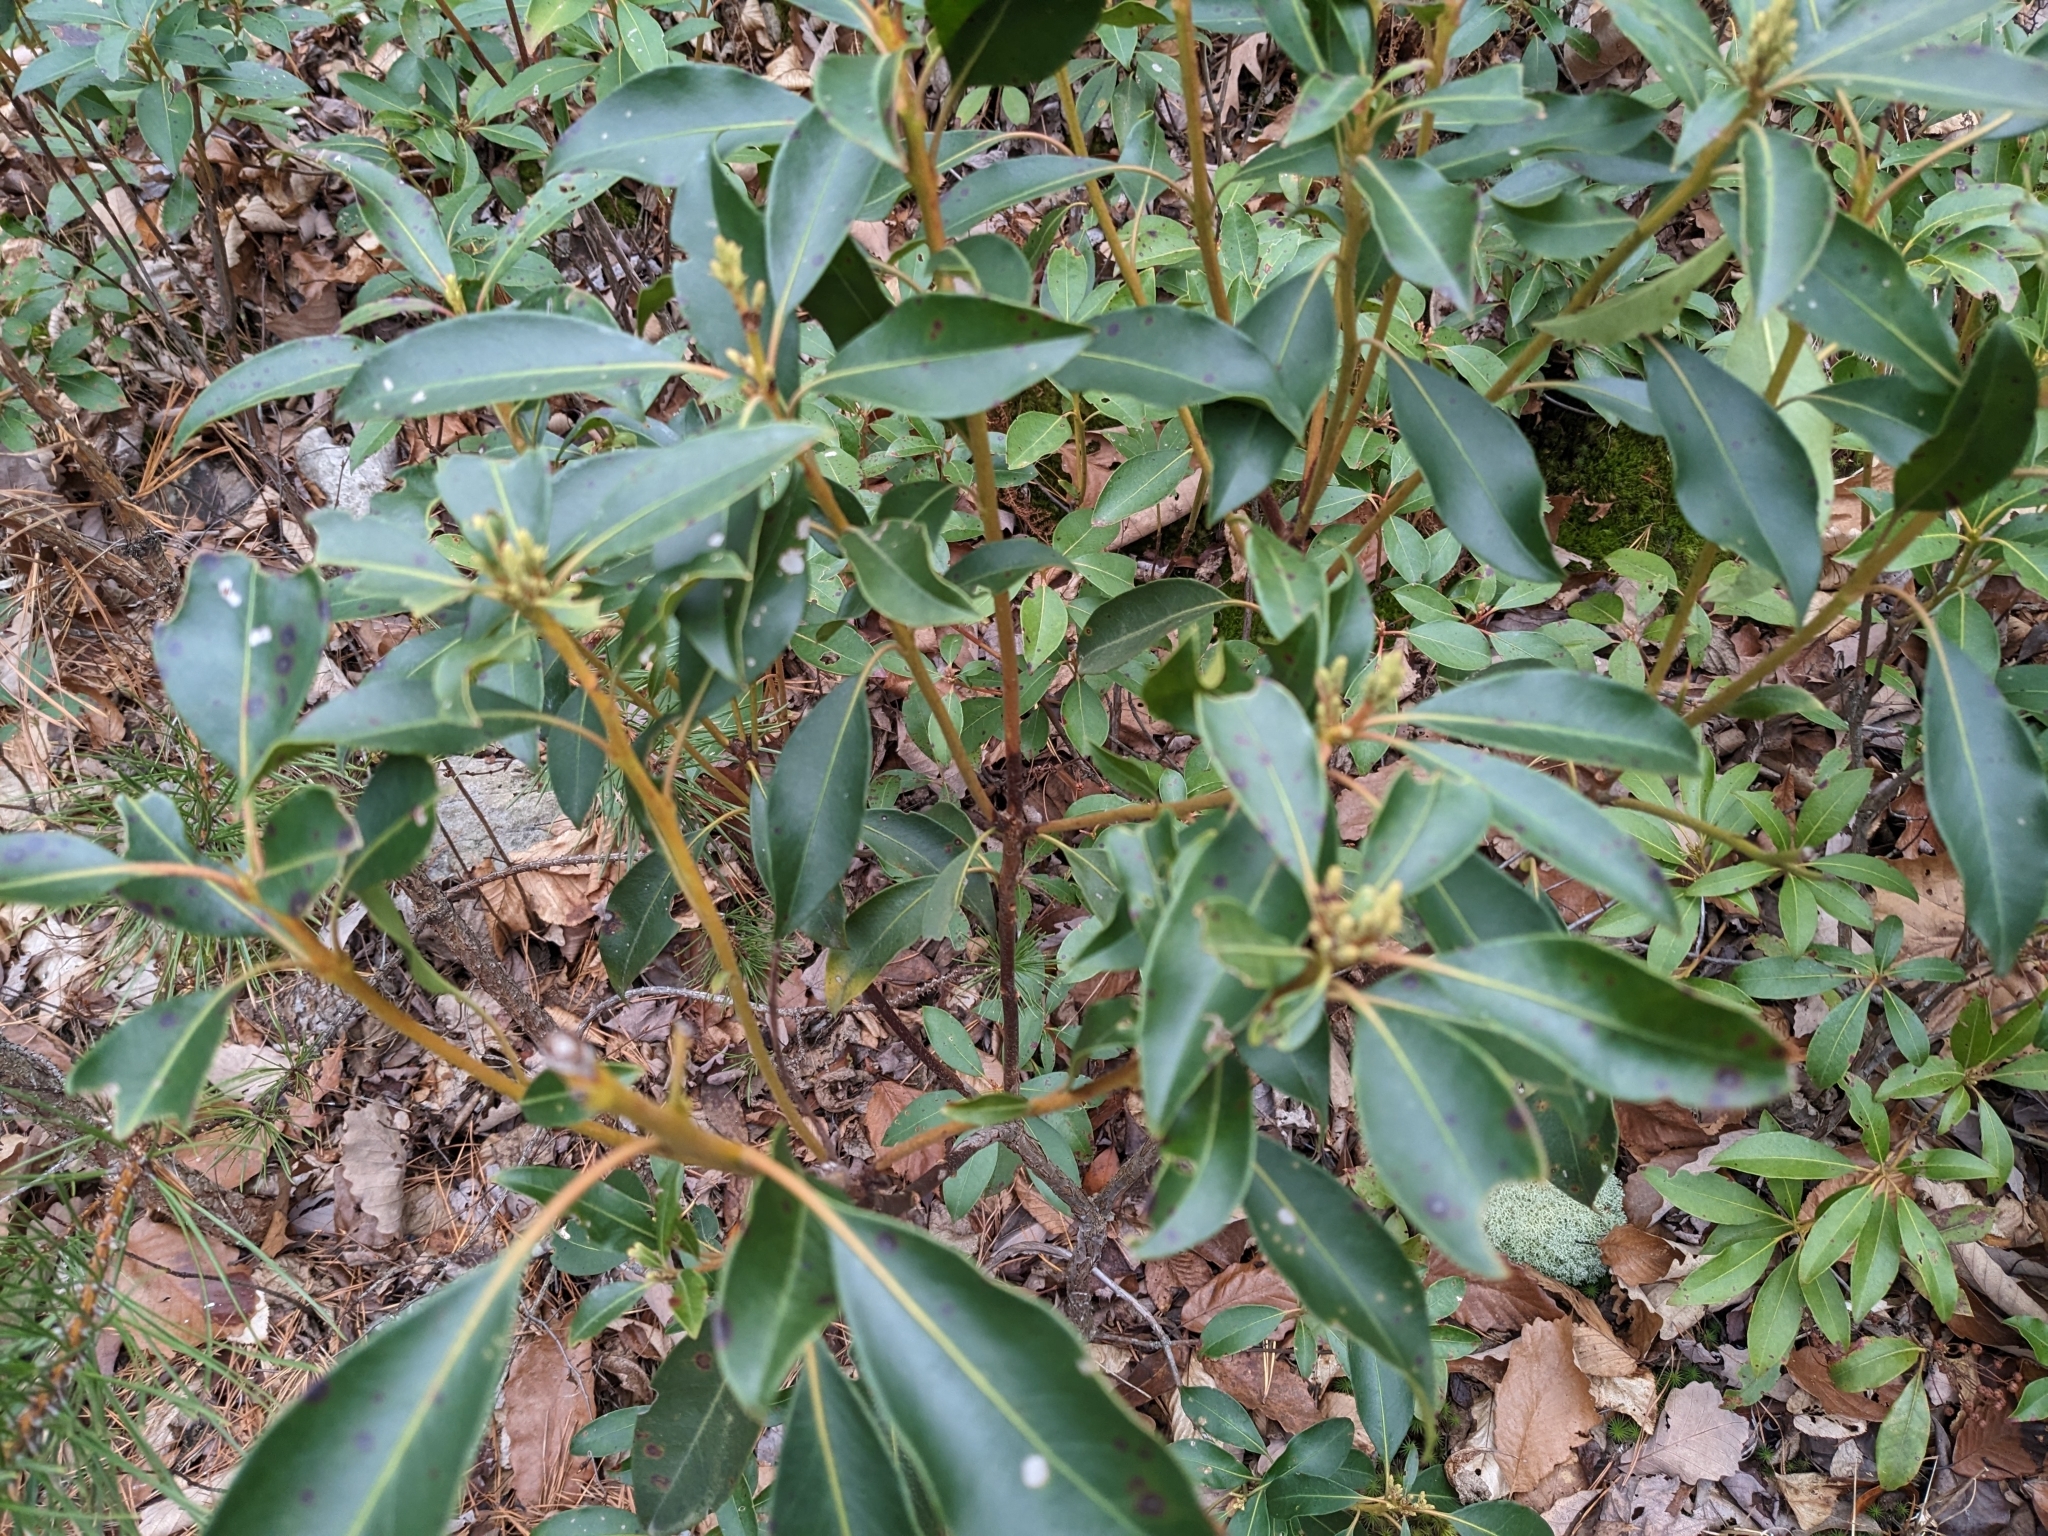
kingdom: Plantae
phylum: Tracheophyta
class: Magnoliopsida
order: Ericales
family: Ericaceae
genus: Kalmia
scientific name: Kalmia latifolia
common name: Mountain-laurel
